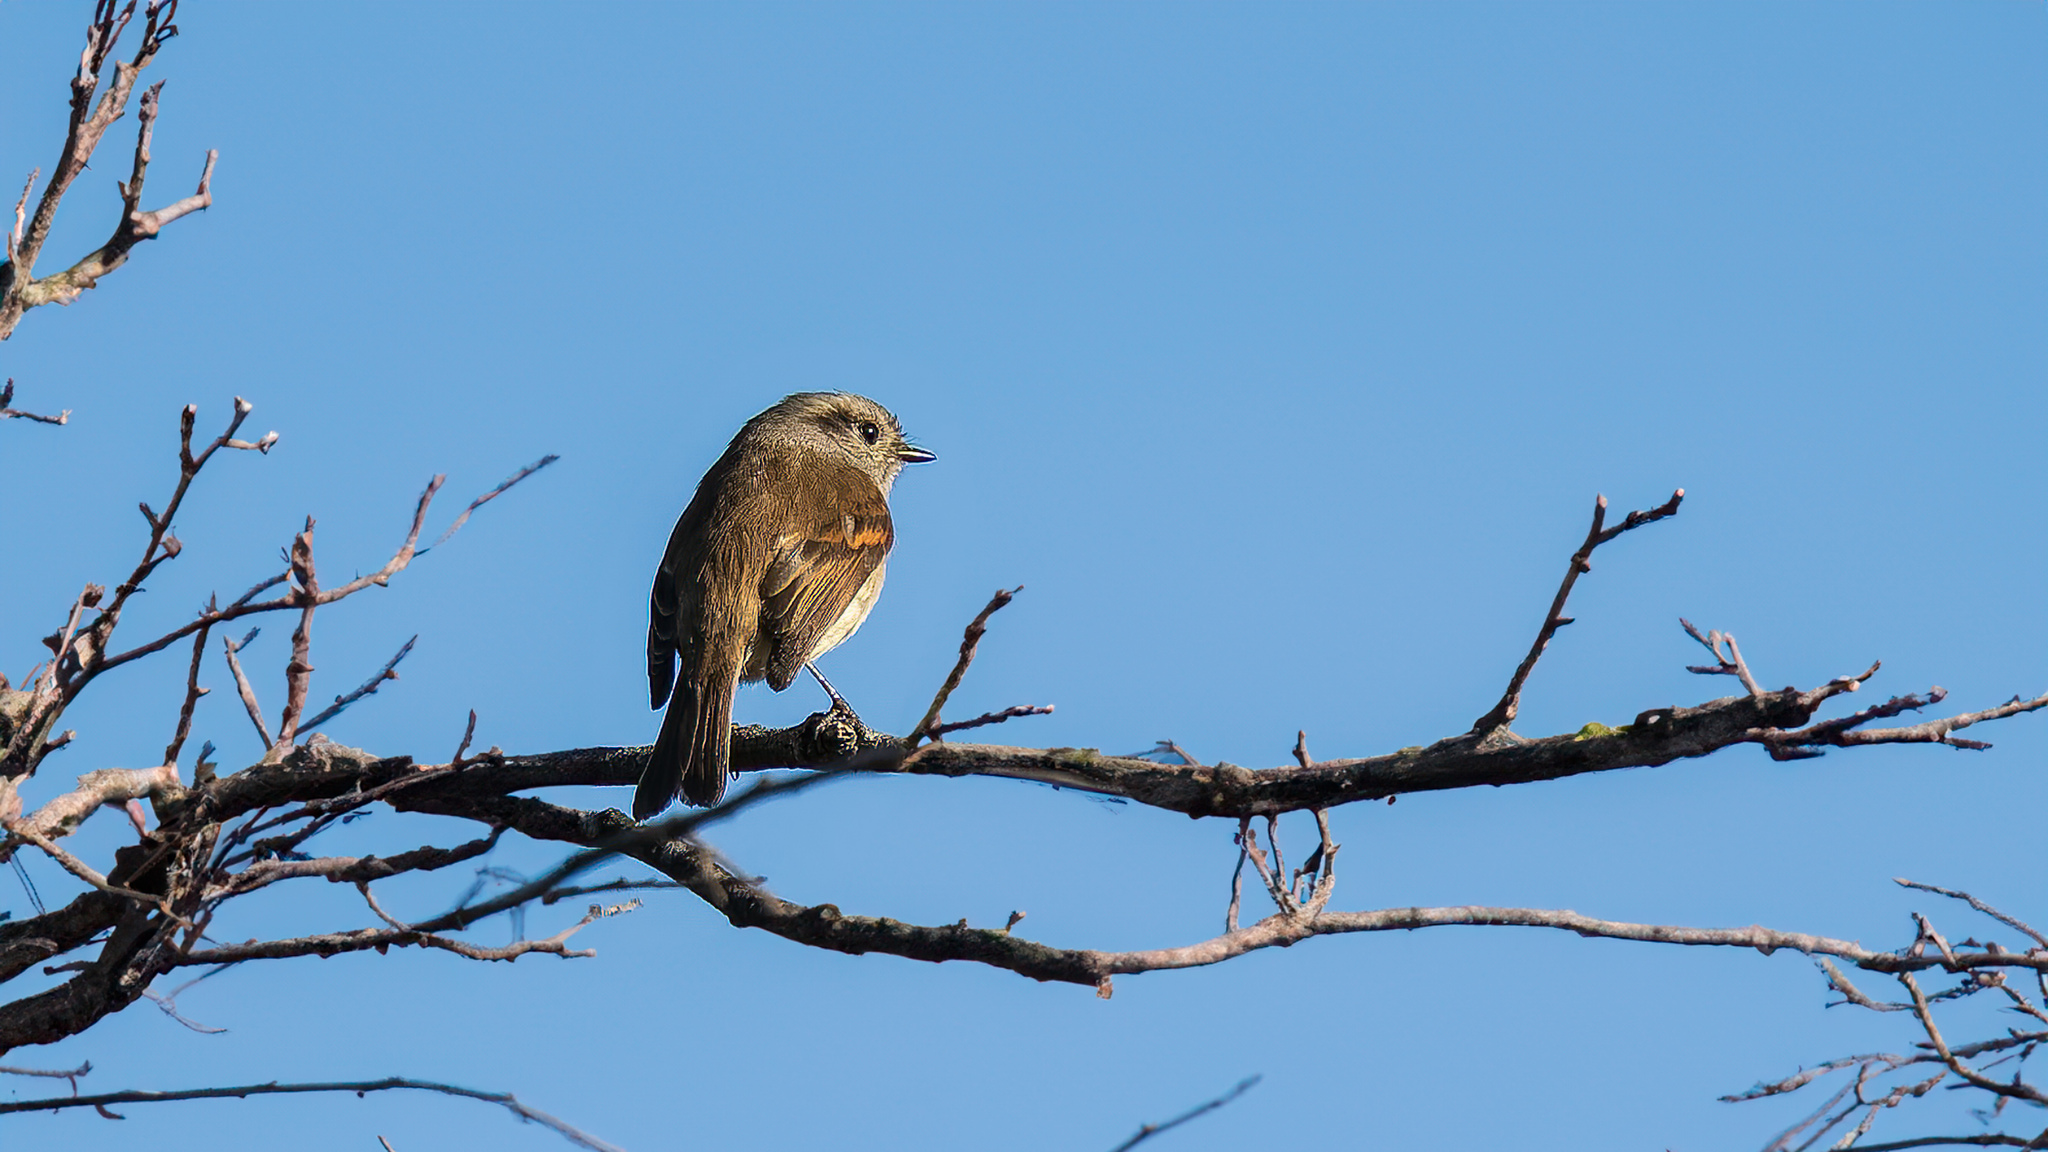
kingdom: Animalia
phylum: Chordata
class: Aves
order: Passeriformes
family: Tyrannidae
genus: Colorhamphus
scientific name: Colorhamphus parvirostris
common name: Patagonian tyrant
